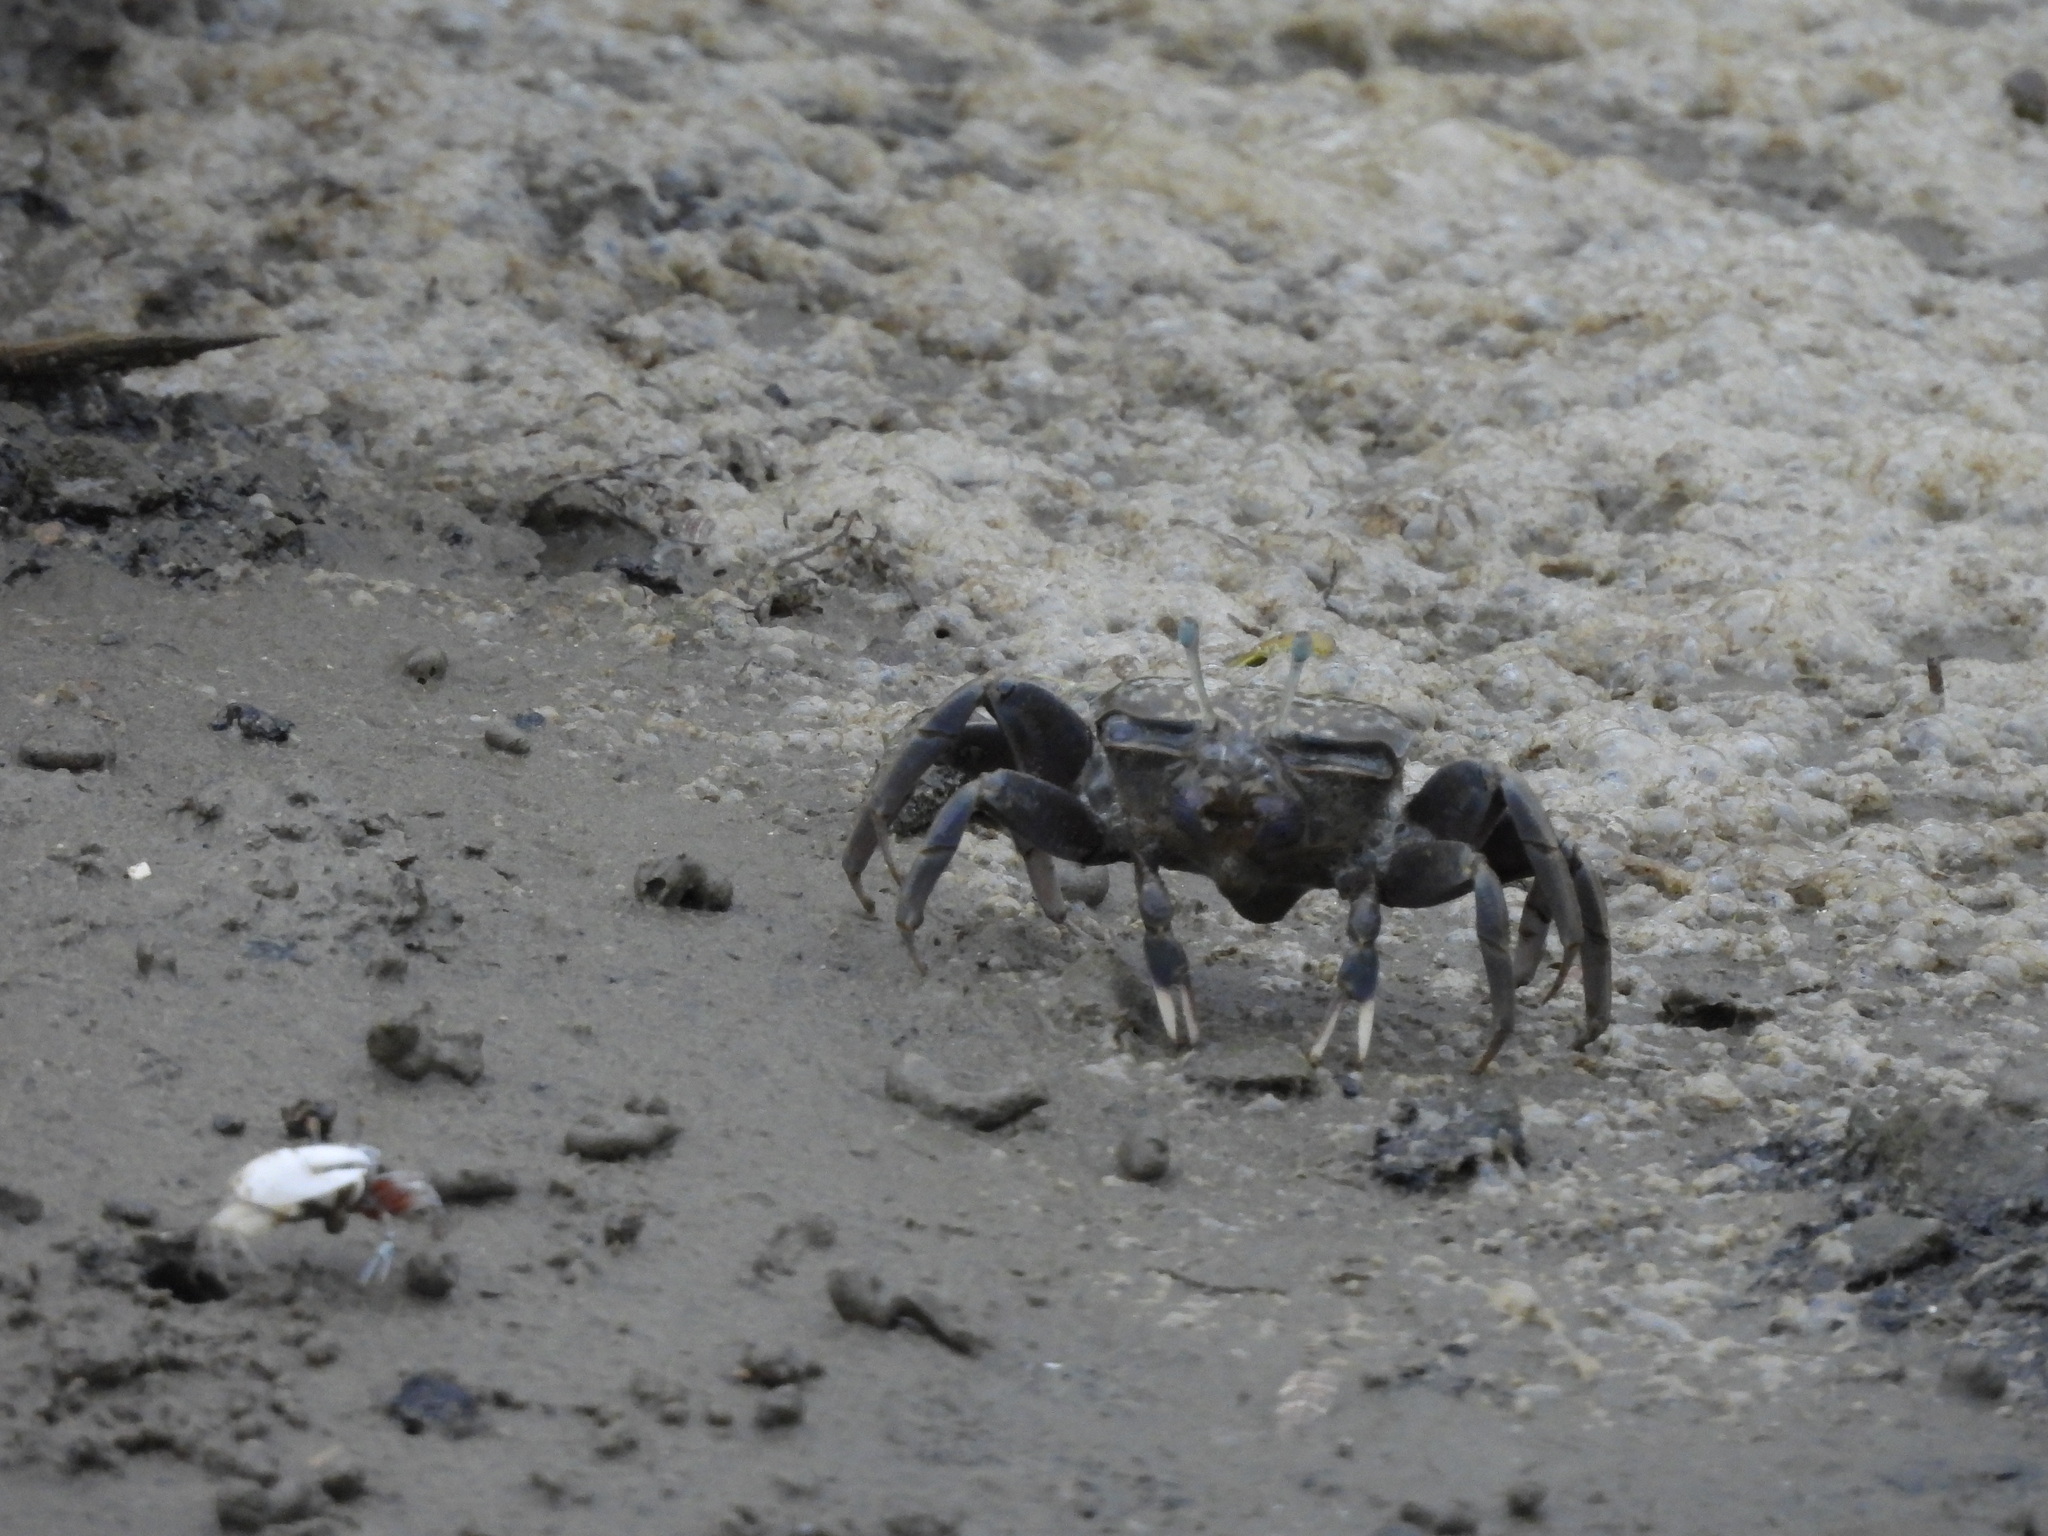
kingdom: Animalia
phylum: Arthropoda
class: Malacostraca
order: Decapoda
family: Ocypodidae
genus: Xeruca
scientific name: Xeruca formosensis
